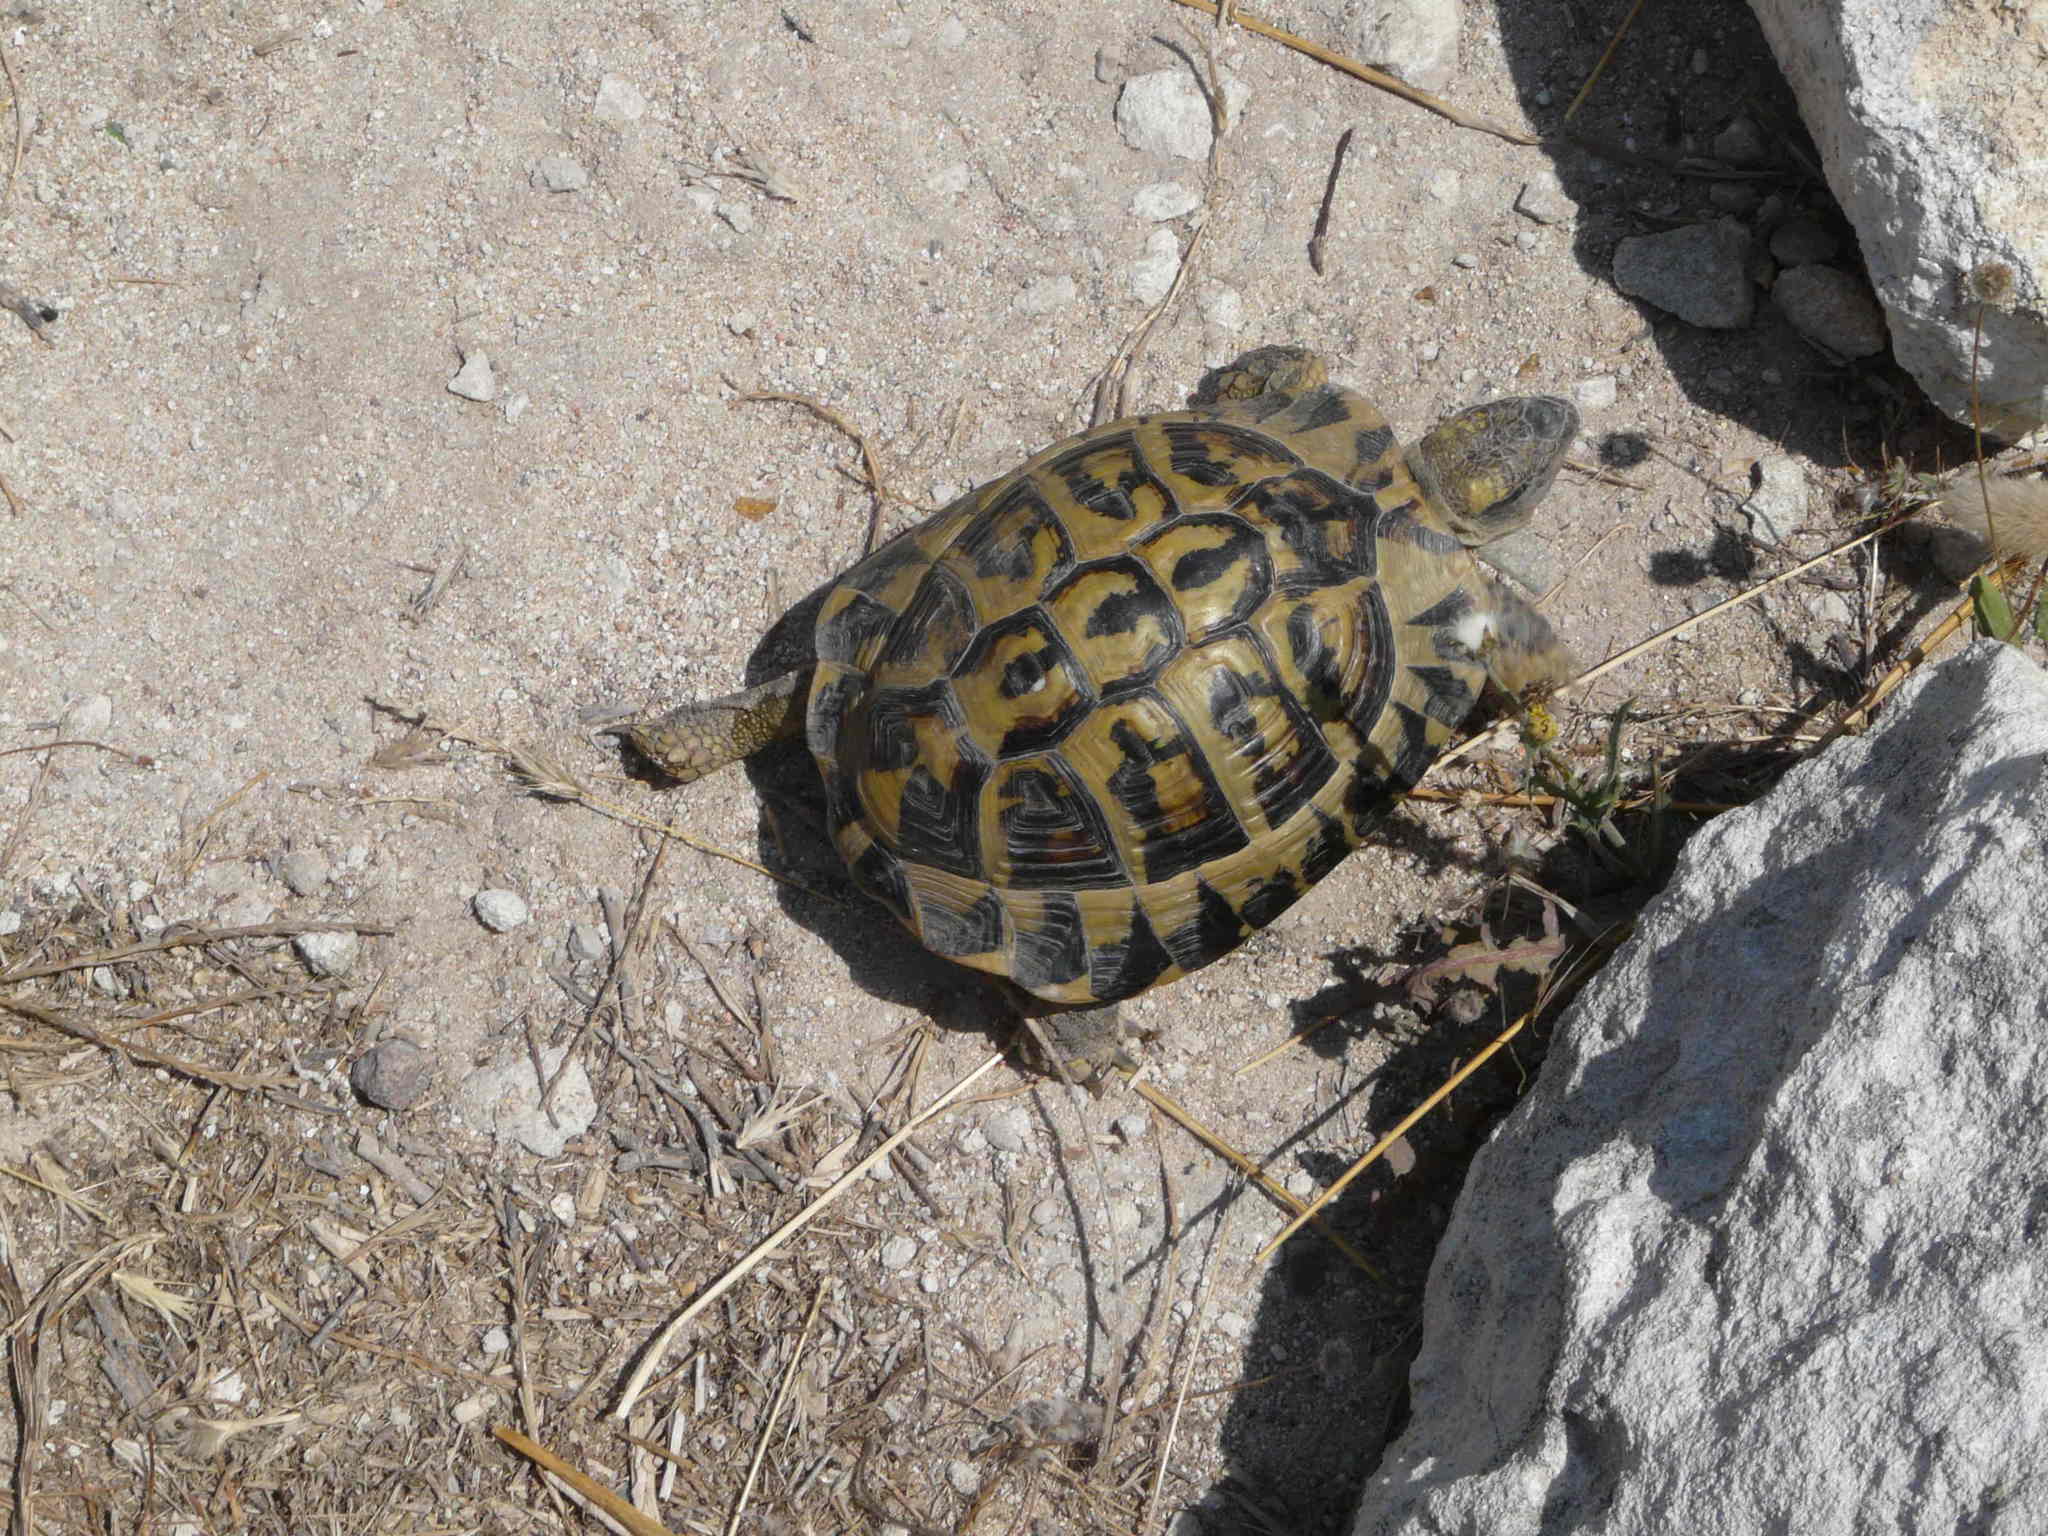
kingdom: Animalia
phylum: Chordata
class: Testudines
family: Testudinidae
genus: Testudo
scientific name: Testudo hermanni
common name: Hermann's tortoise
